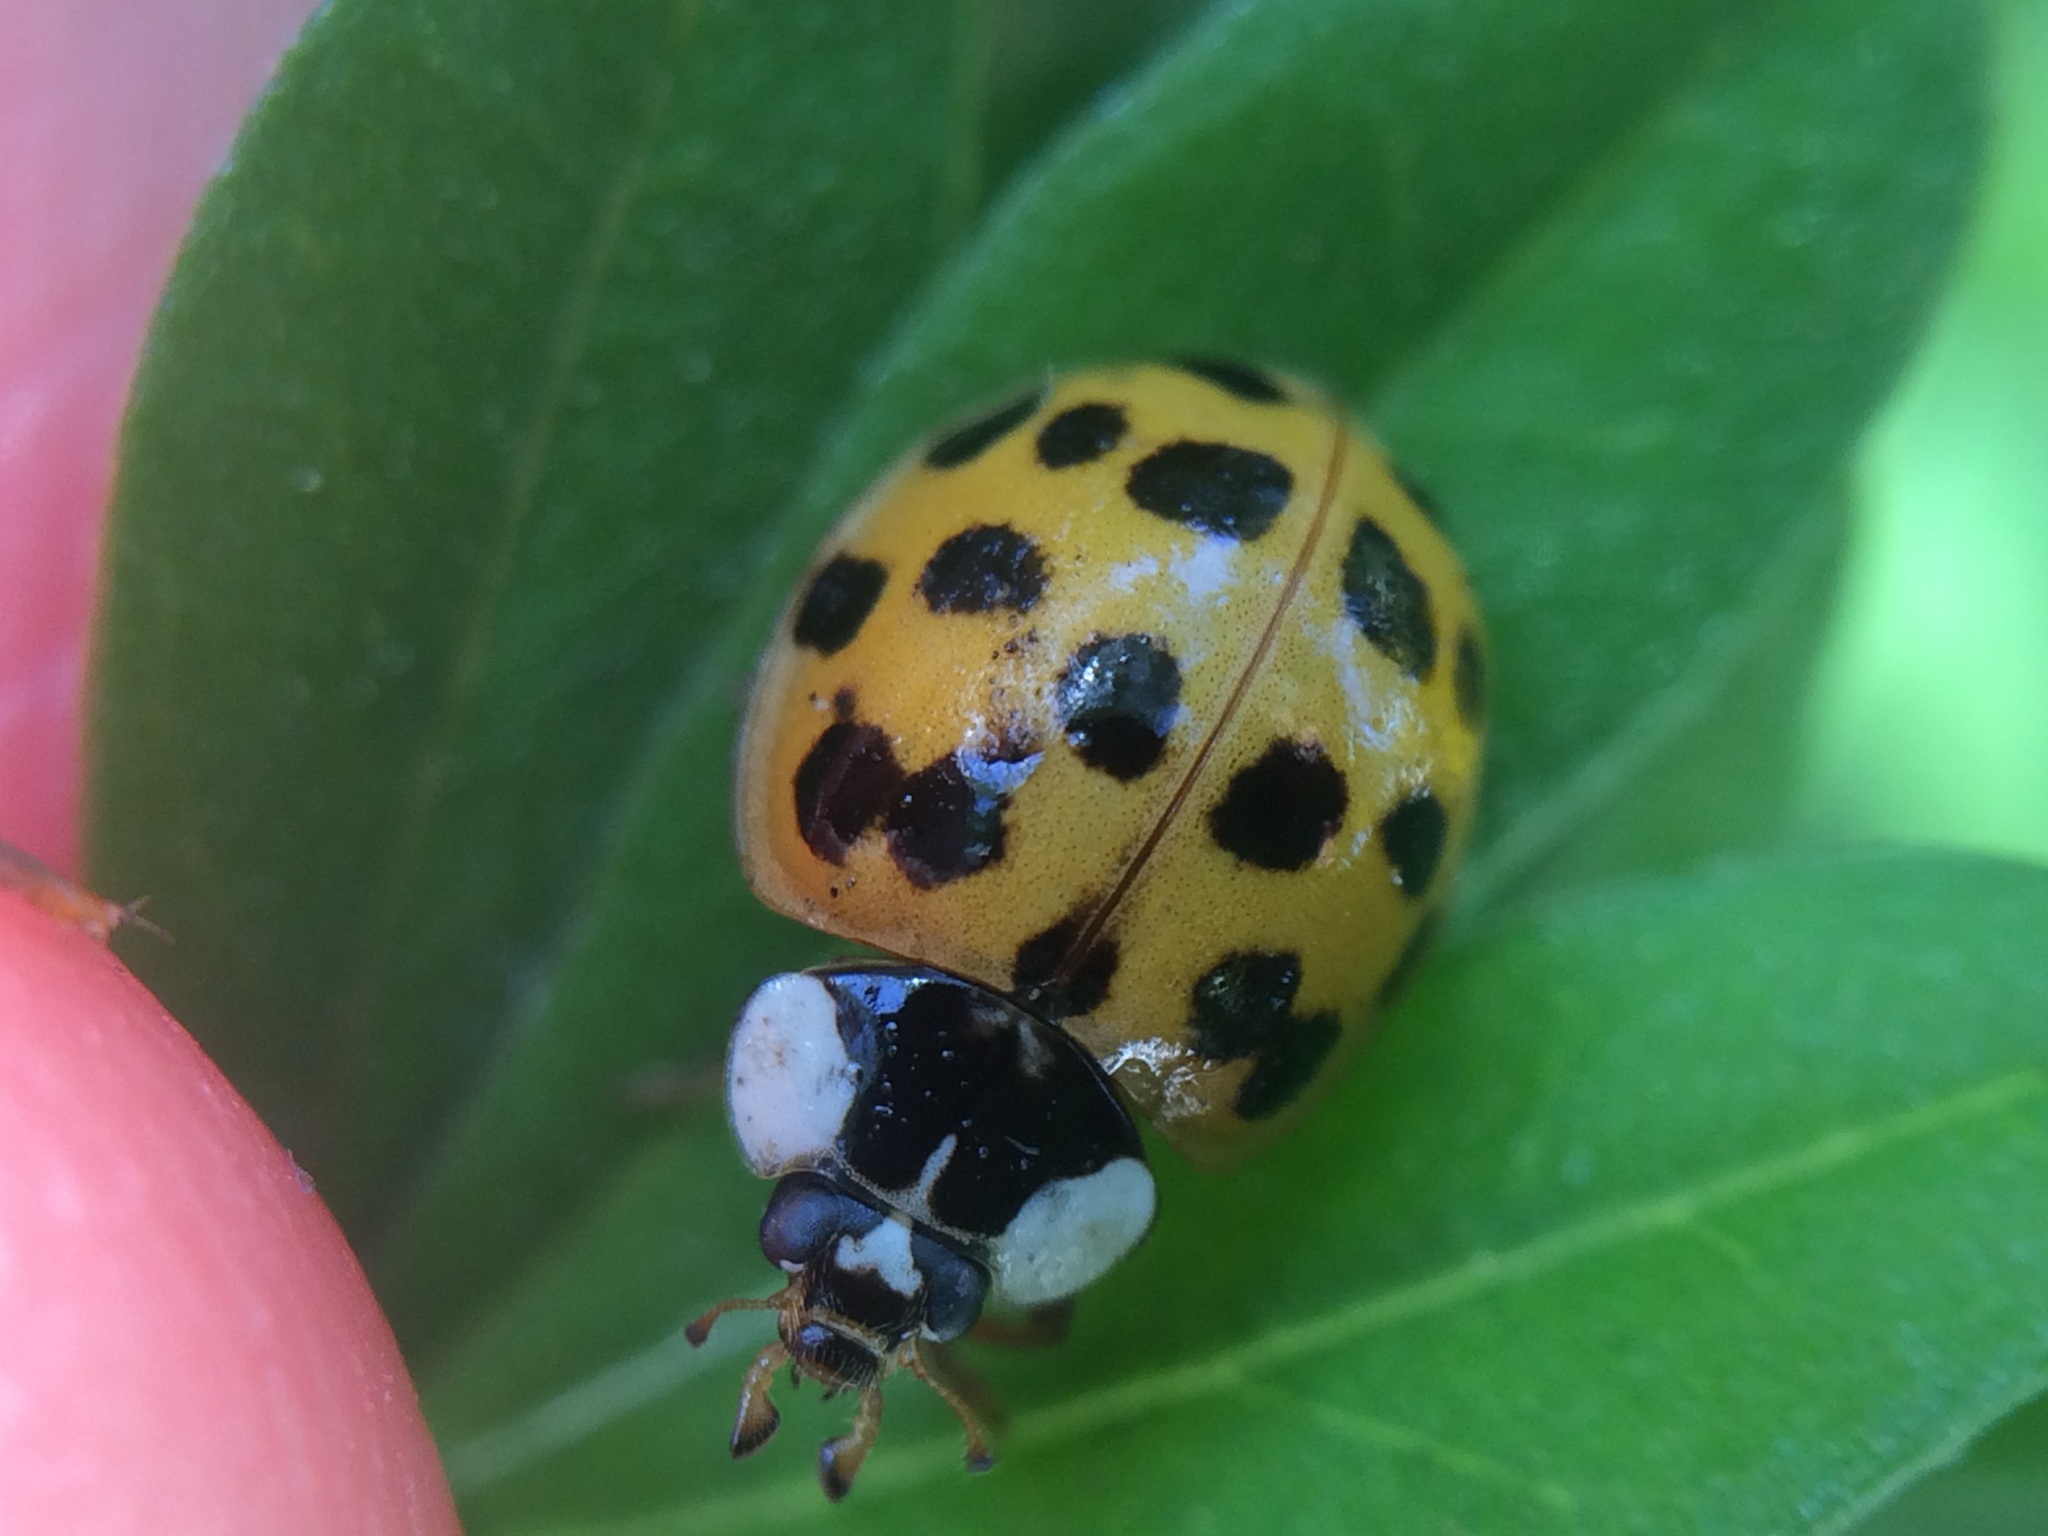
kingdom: Animalia
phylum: Arthropoda
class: Insecta
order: Coleoptera
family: Coccinellidae
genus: Harmonia
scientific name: Harmonia axyridis
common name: Harlequin ladybird
